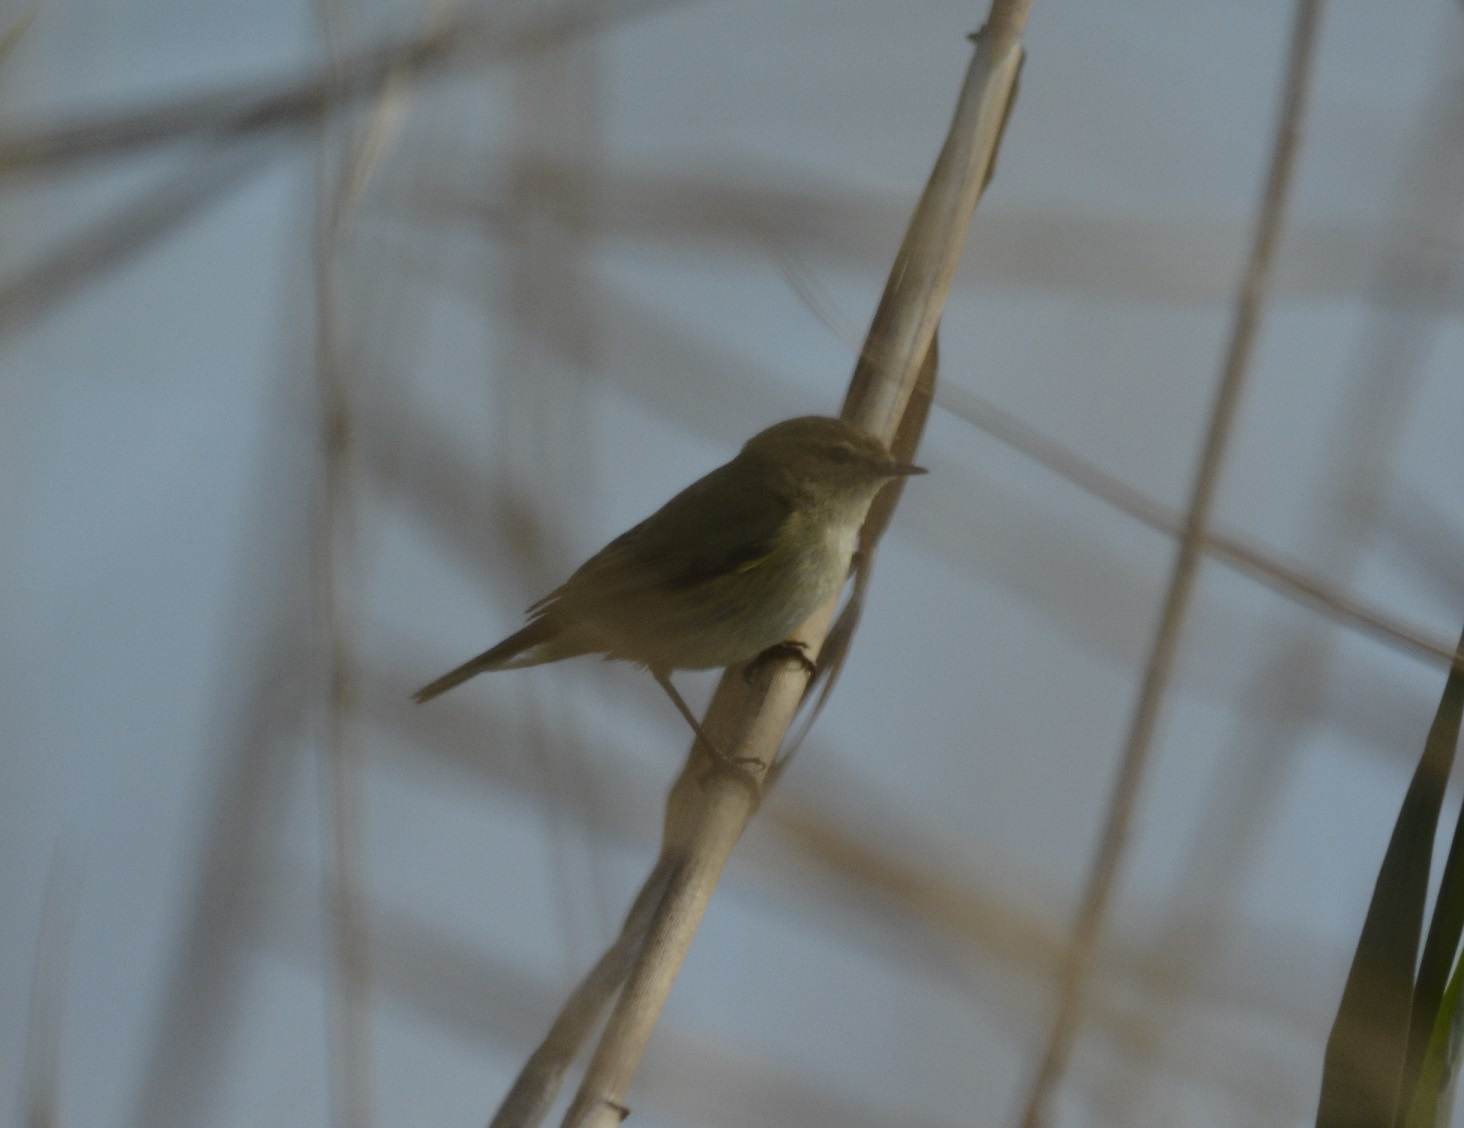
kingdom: Animalia
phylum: Chordata
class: Aves
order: Passeriformes
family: Phylloscopidae
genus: Phylloscopus
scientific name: Phylloscopus collybita
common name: Common chiffchaff
